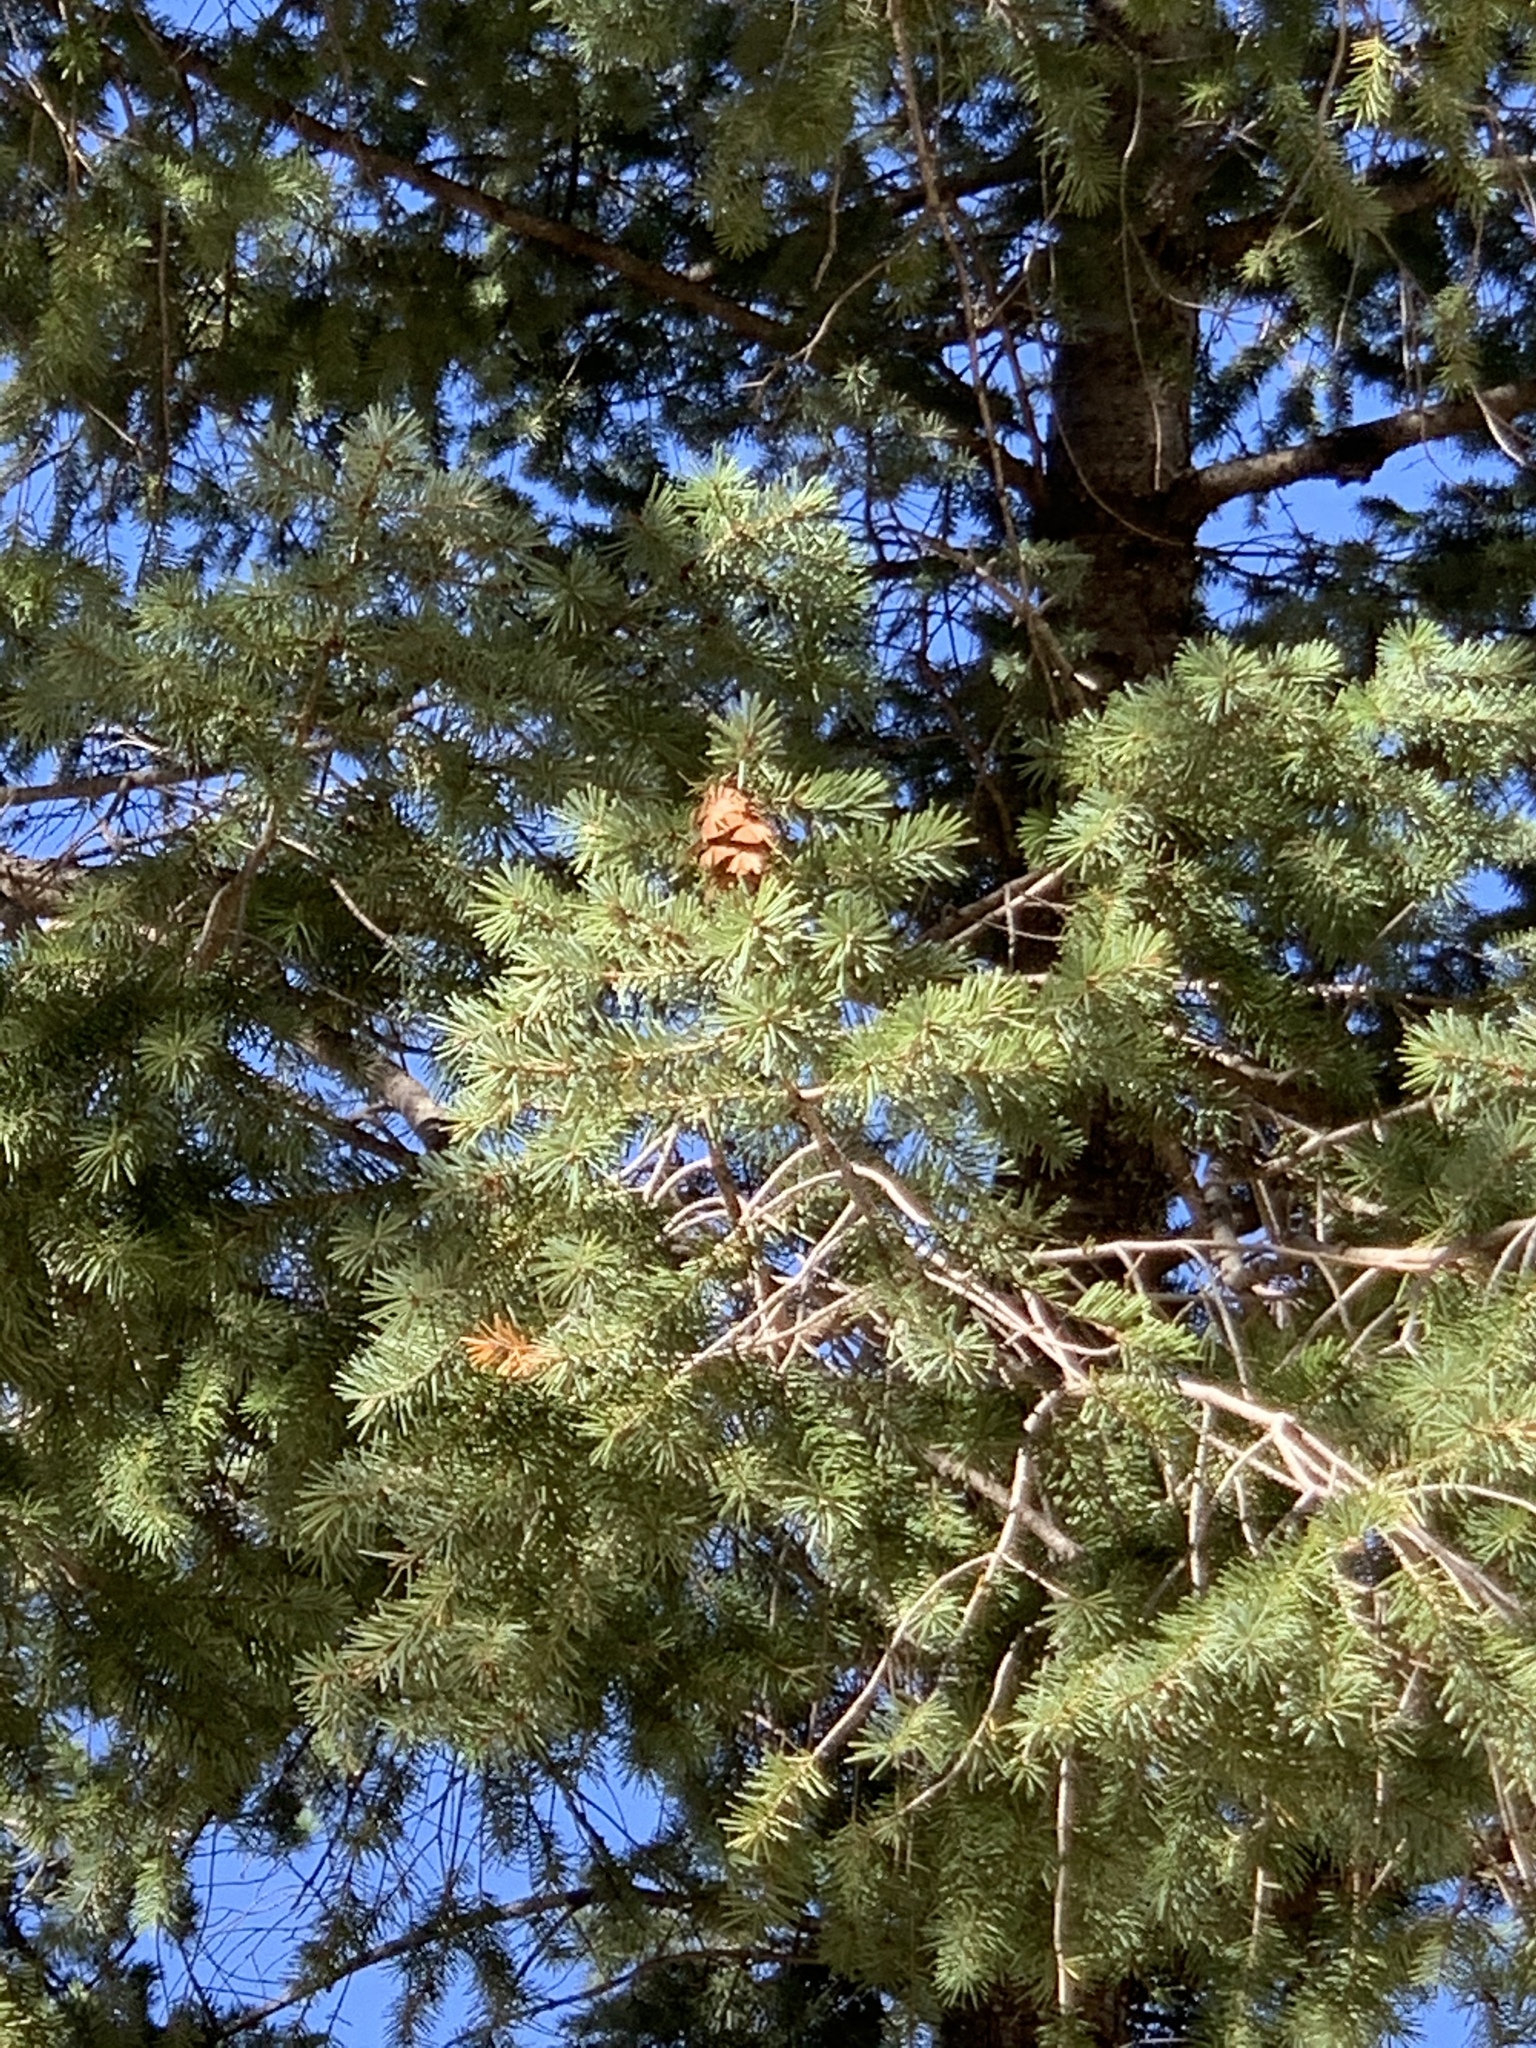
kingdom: Plantae
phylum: Tracheophyta
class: Pinopsida
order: Pinales
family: Pinaceae
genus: Pseudotsuga
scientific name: Pseudotsuga menziesii
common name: Douglas fir
